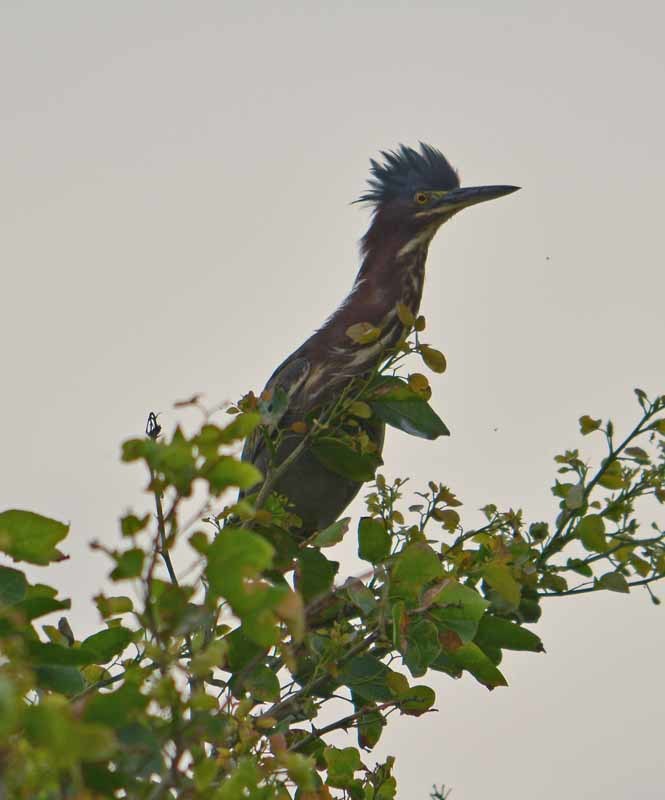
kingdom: Animalia
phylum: Chordata
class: Aves
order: Pelecaniformes
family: Ardeidae
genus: Butorides
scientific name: Butorides virescens
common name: Green heron
